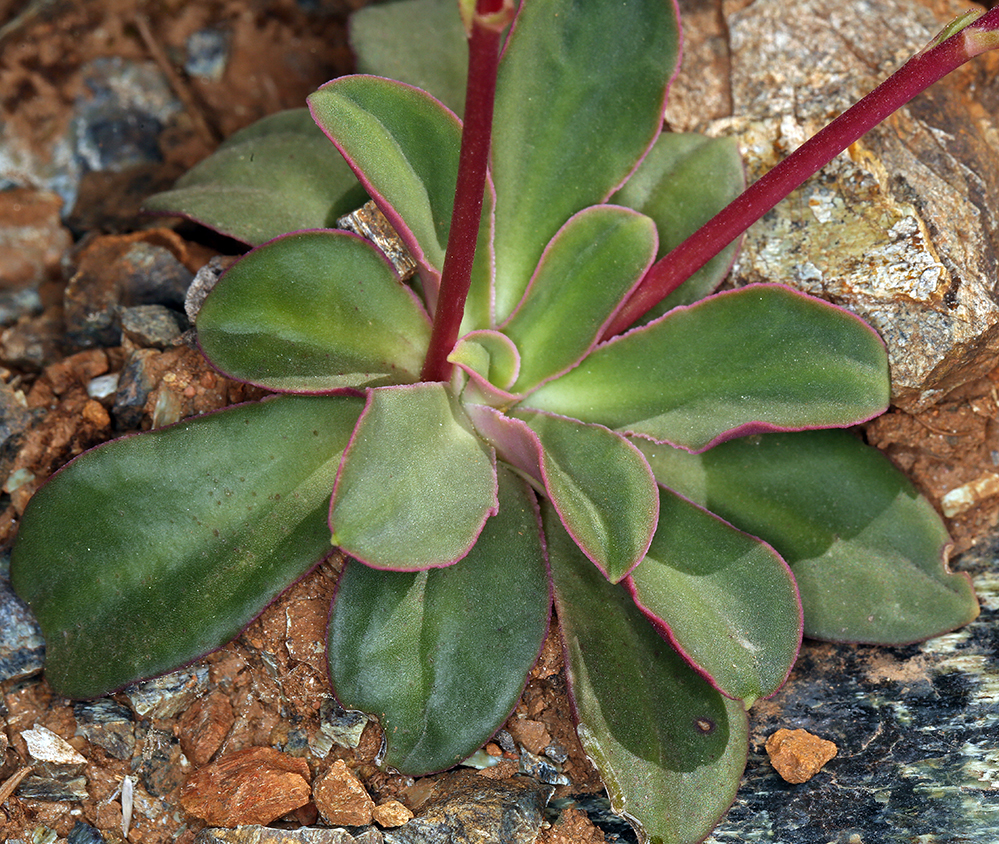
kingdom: Plantae
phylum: Tracheophyta
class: Magnoliopsida
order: Caryophyllales
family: Montiaceae
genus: Lewisia
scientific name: Lewisia cotyledon
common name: Siskiyou lewisia
